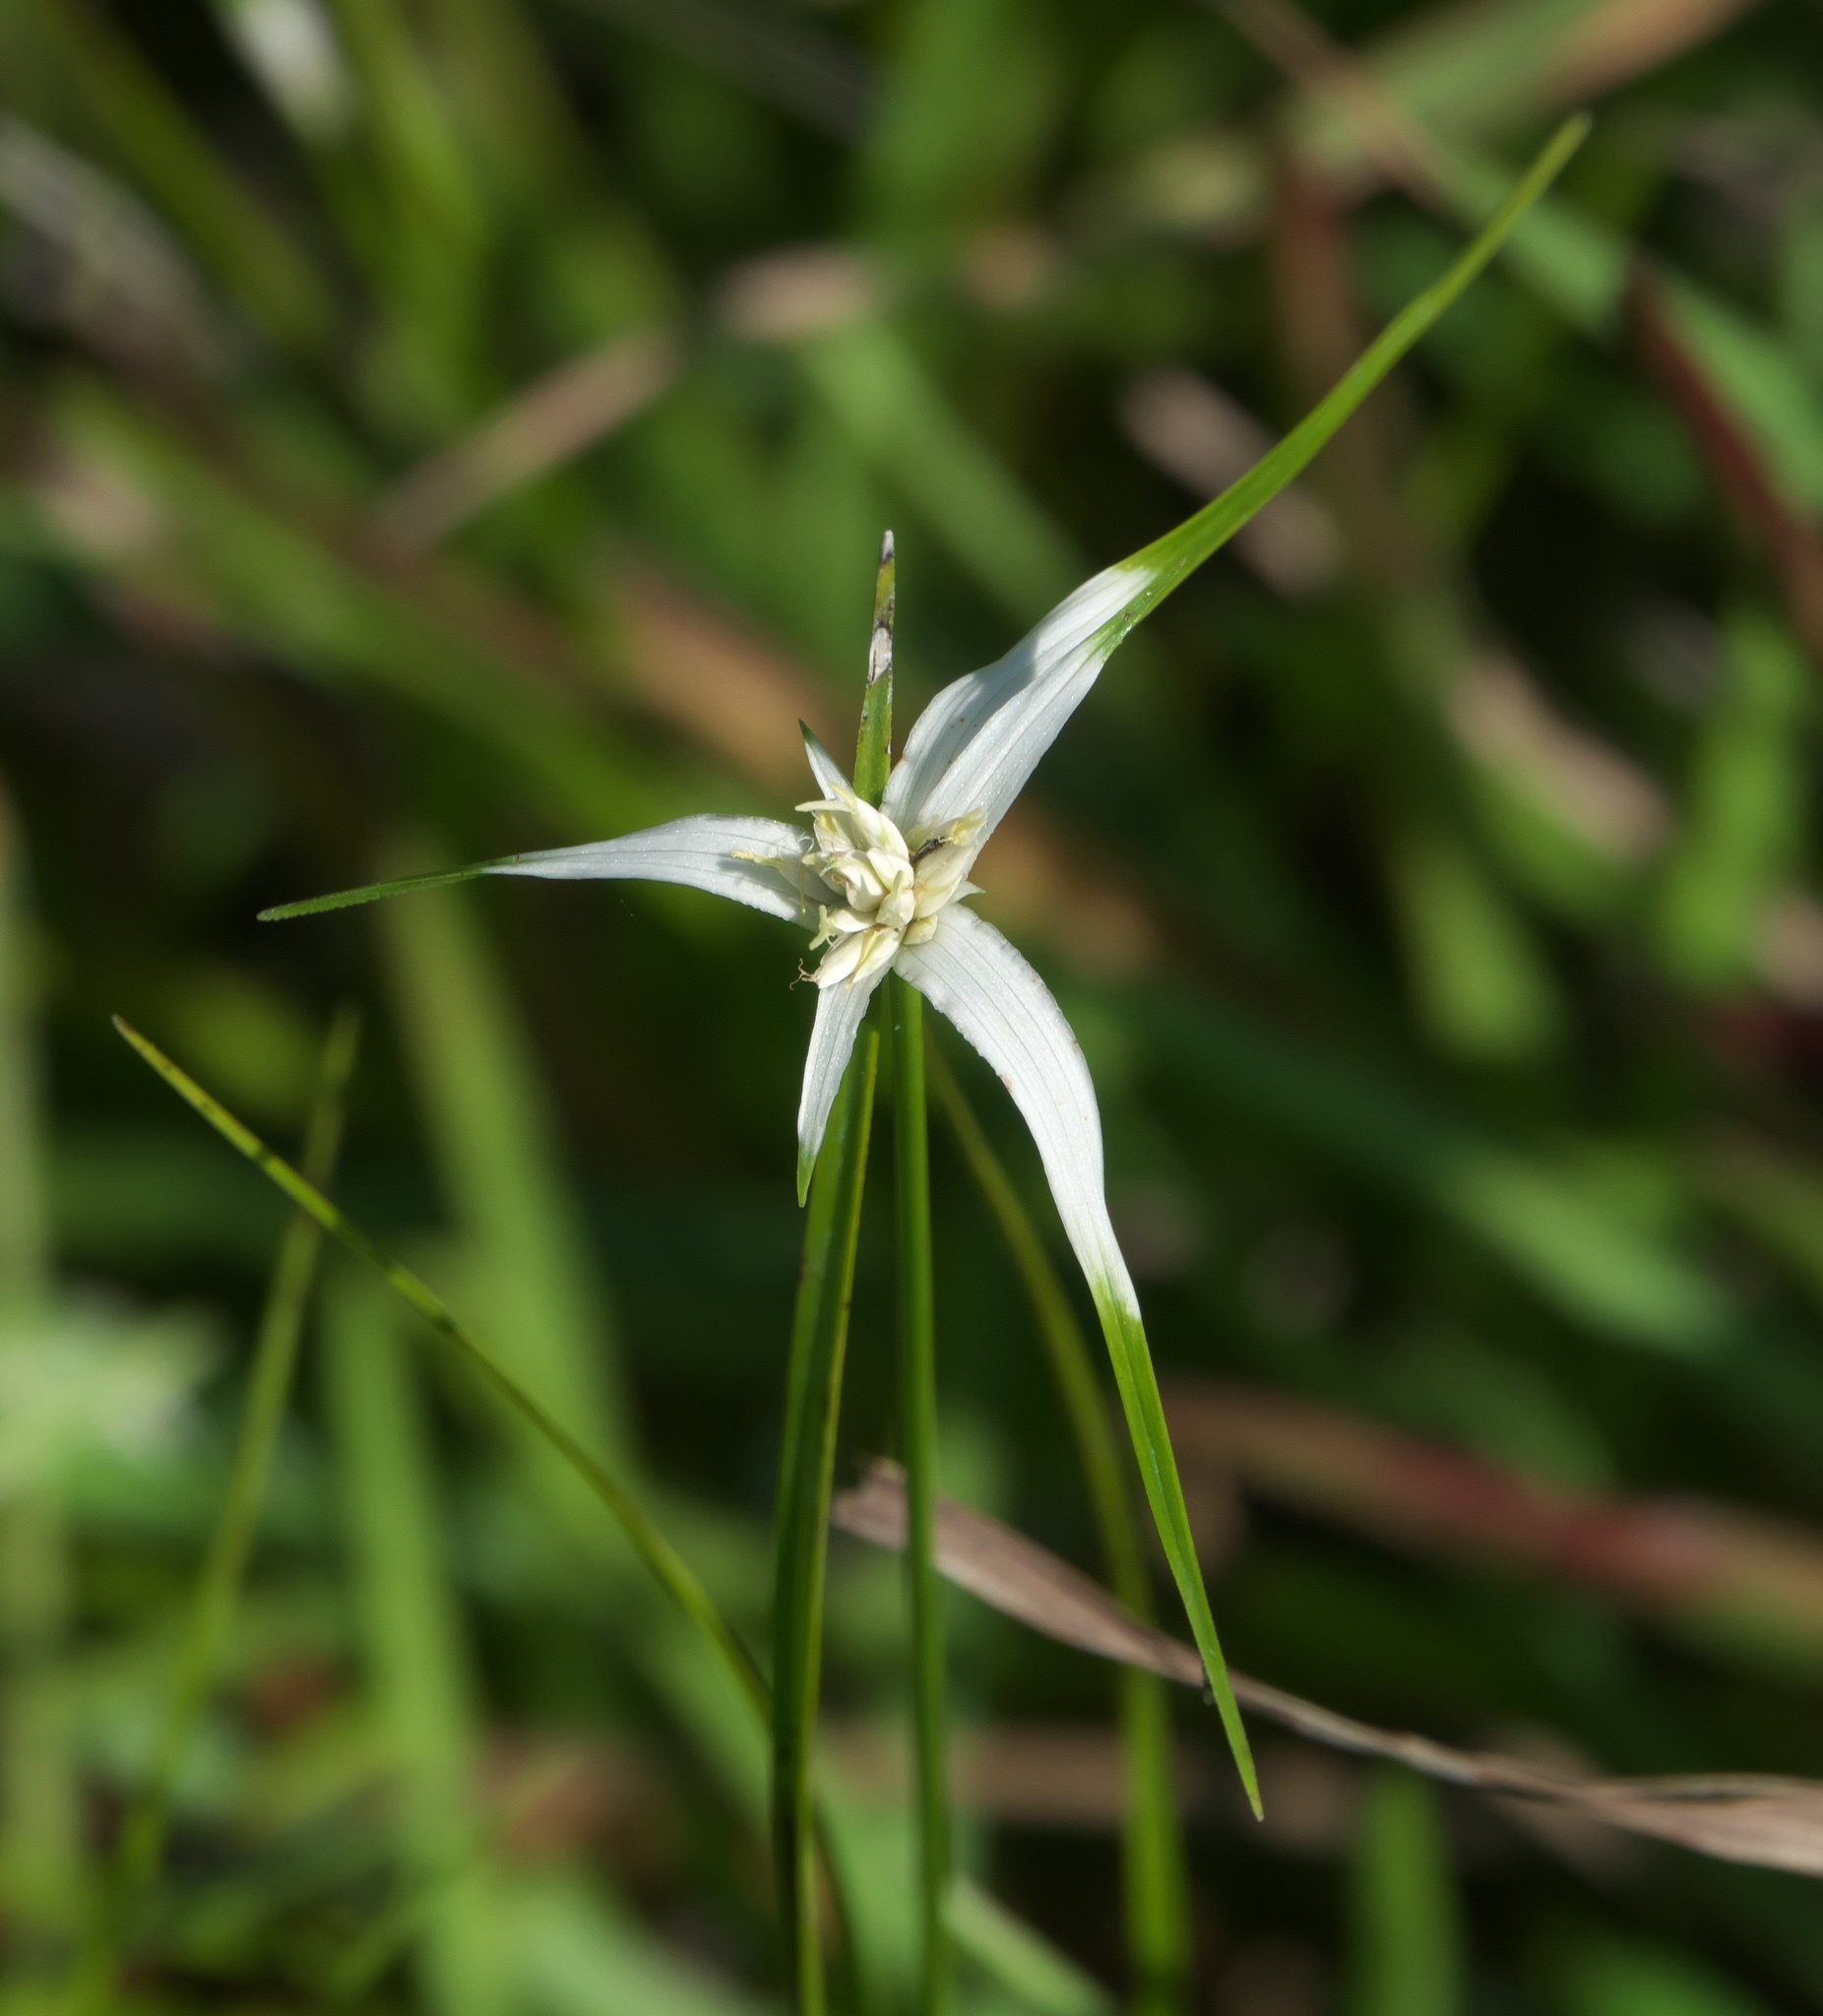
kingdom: Plantae
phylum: Tracheophyta
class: Liliopsida
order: Poales
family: Cyperaceae
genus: Rhynchospora
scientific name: Rhynchospora colorata
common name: Star sedge
